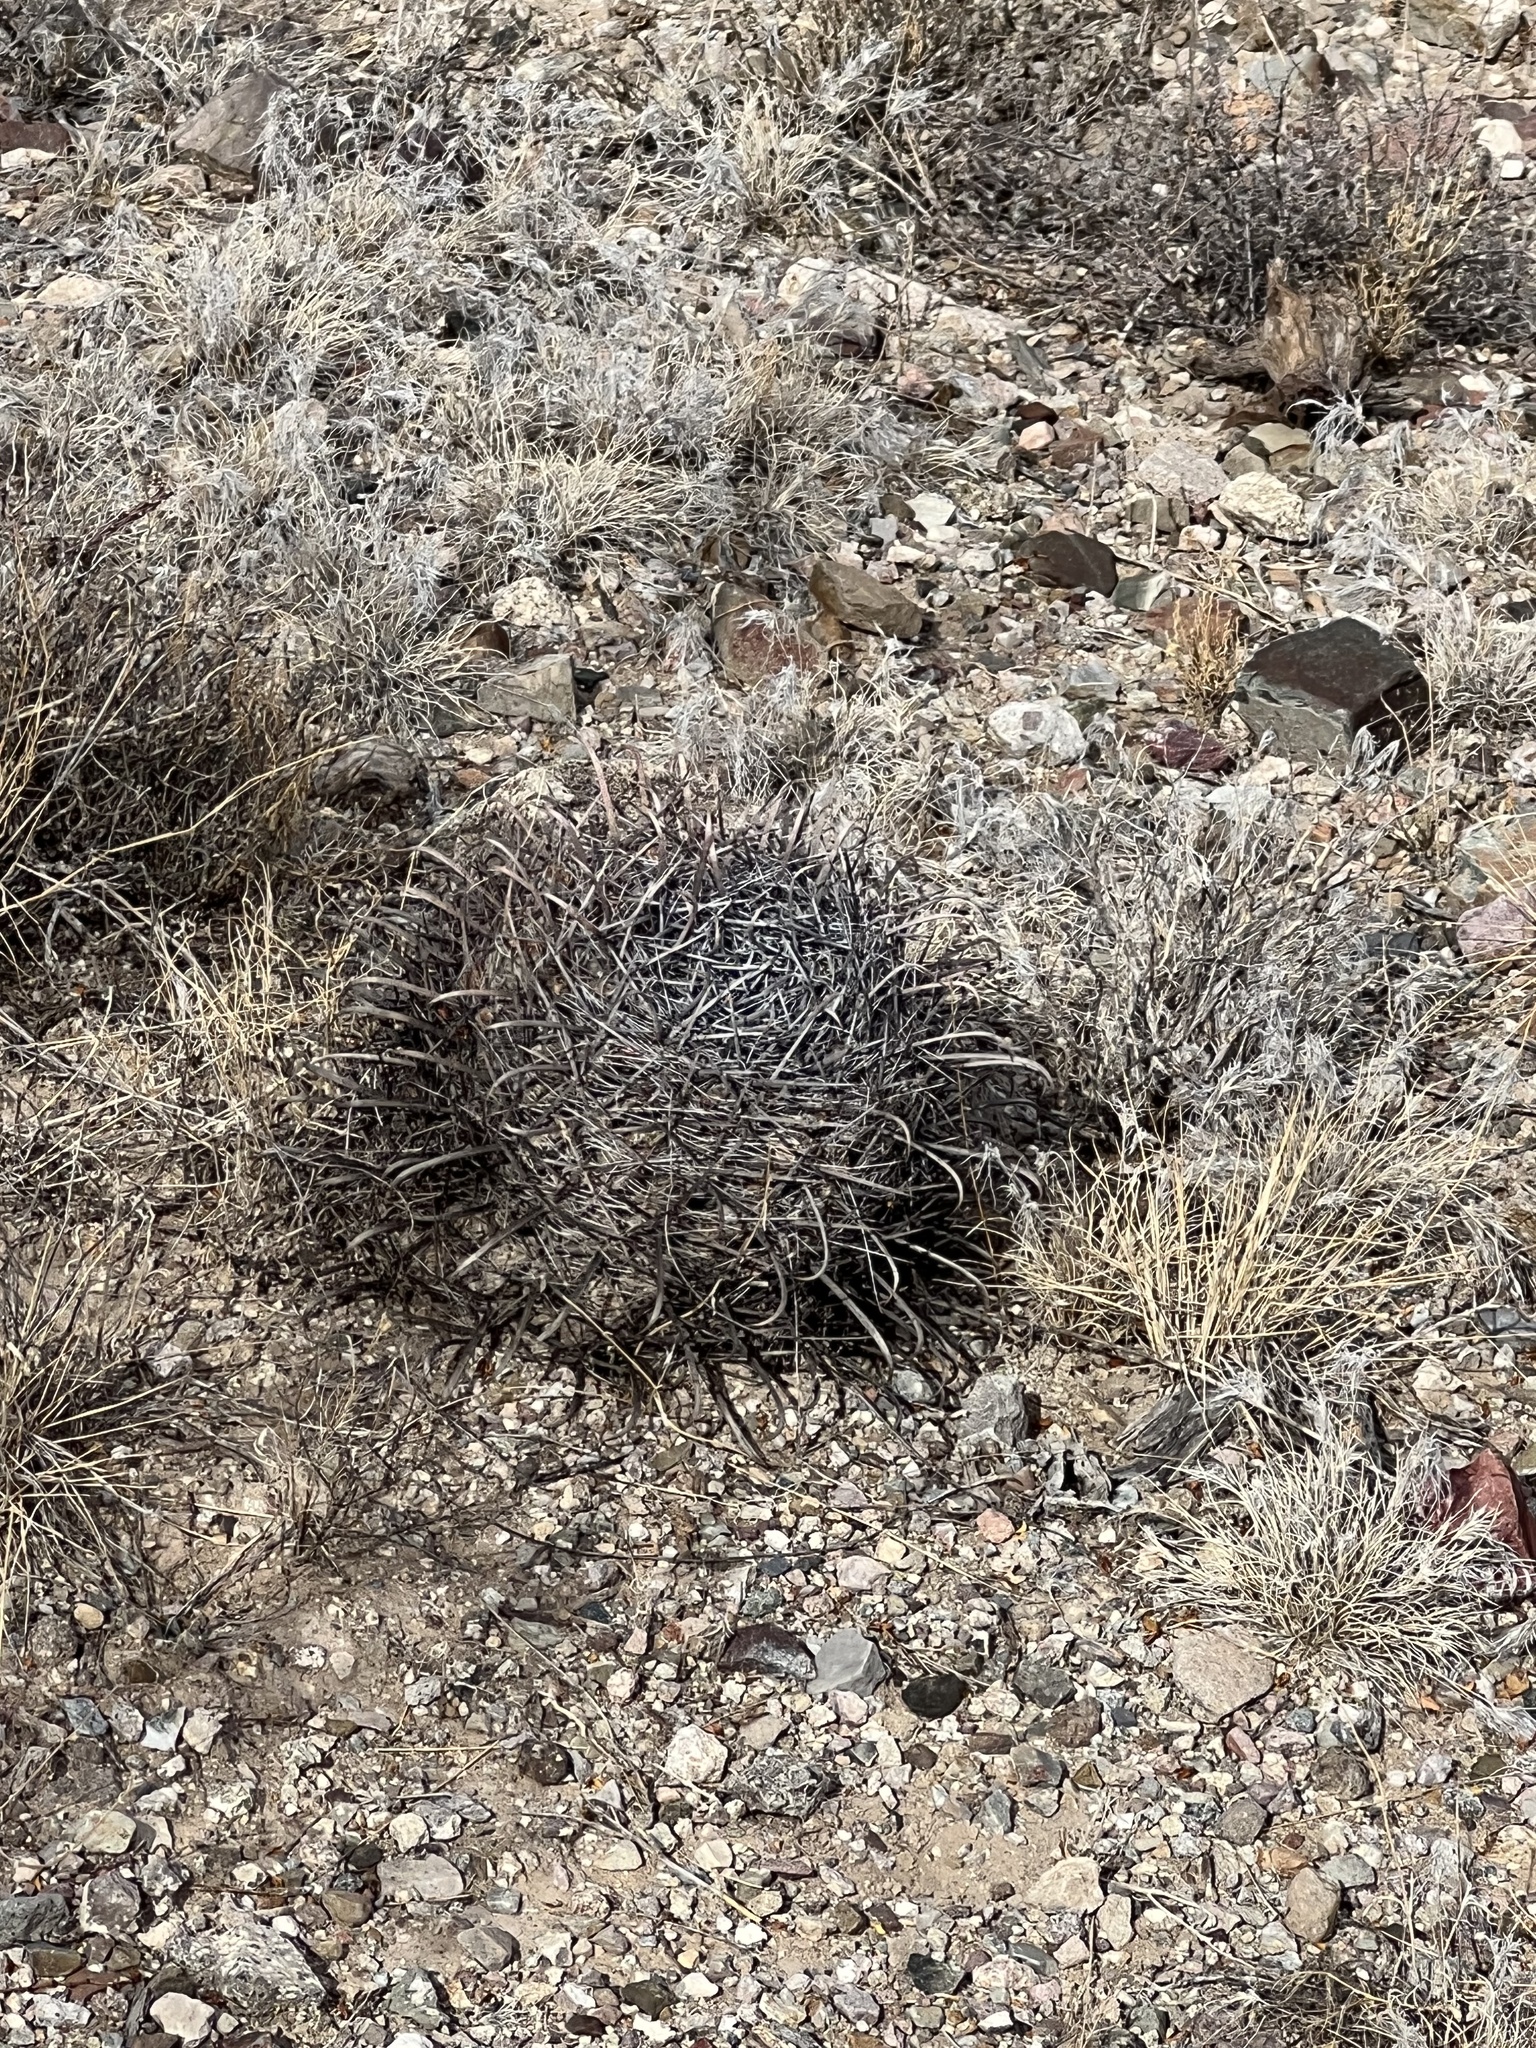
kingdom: Plantae
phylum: Tracheophyta
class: Magnoliopsida
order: Caryophyllales
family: Cactaceae
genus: Ferocactus
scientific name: Ferocactus wislizeni
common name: Candy barrel cactus
